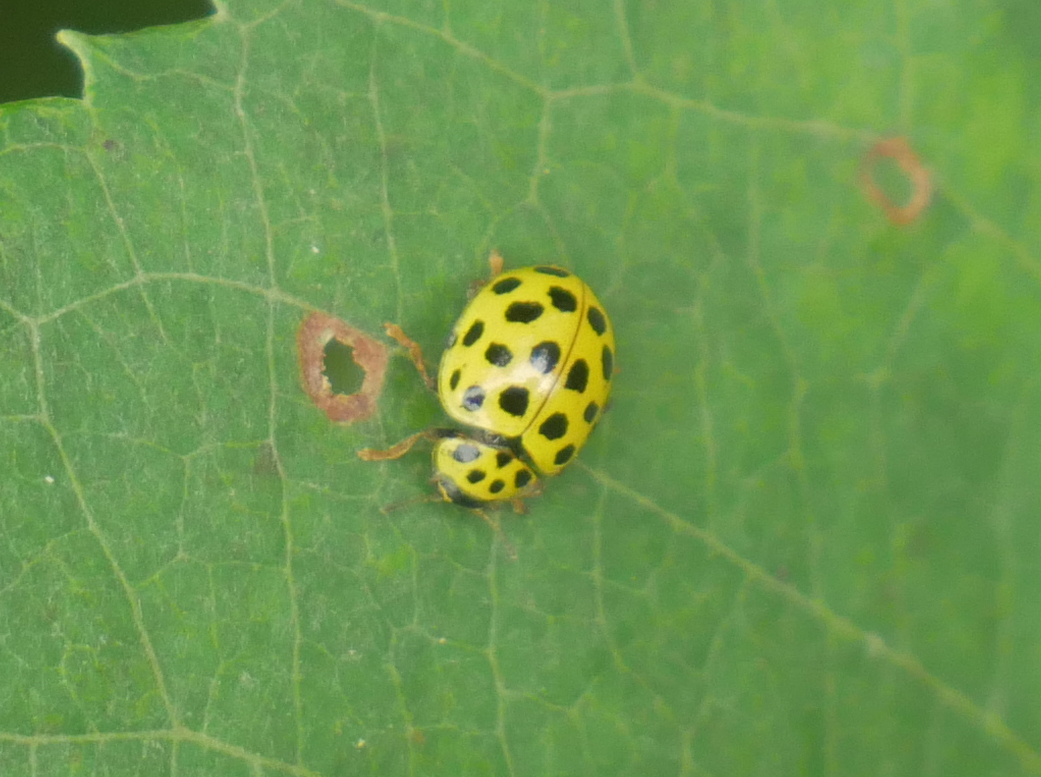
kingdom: Animalia
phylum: Arthropoda
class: Insecta
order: Coleoptera
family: Coccinellidae
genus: Psyllobora
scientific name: Psyllobora vigintiduopunctata
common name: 22-spot ladybird
